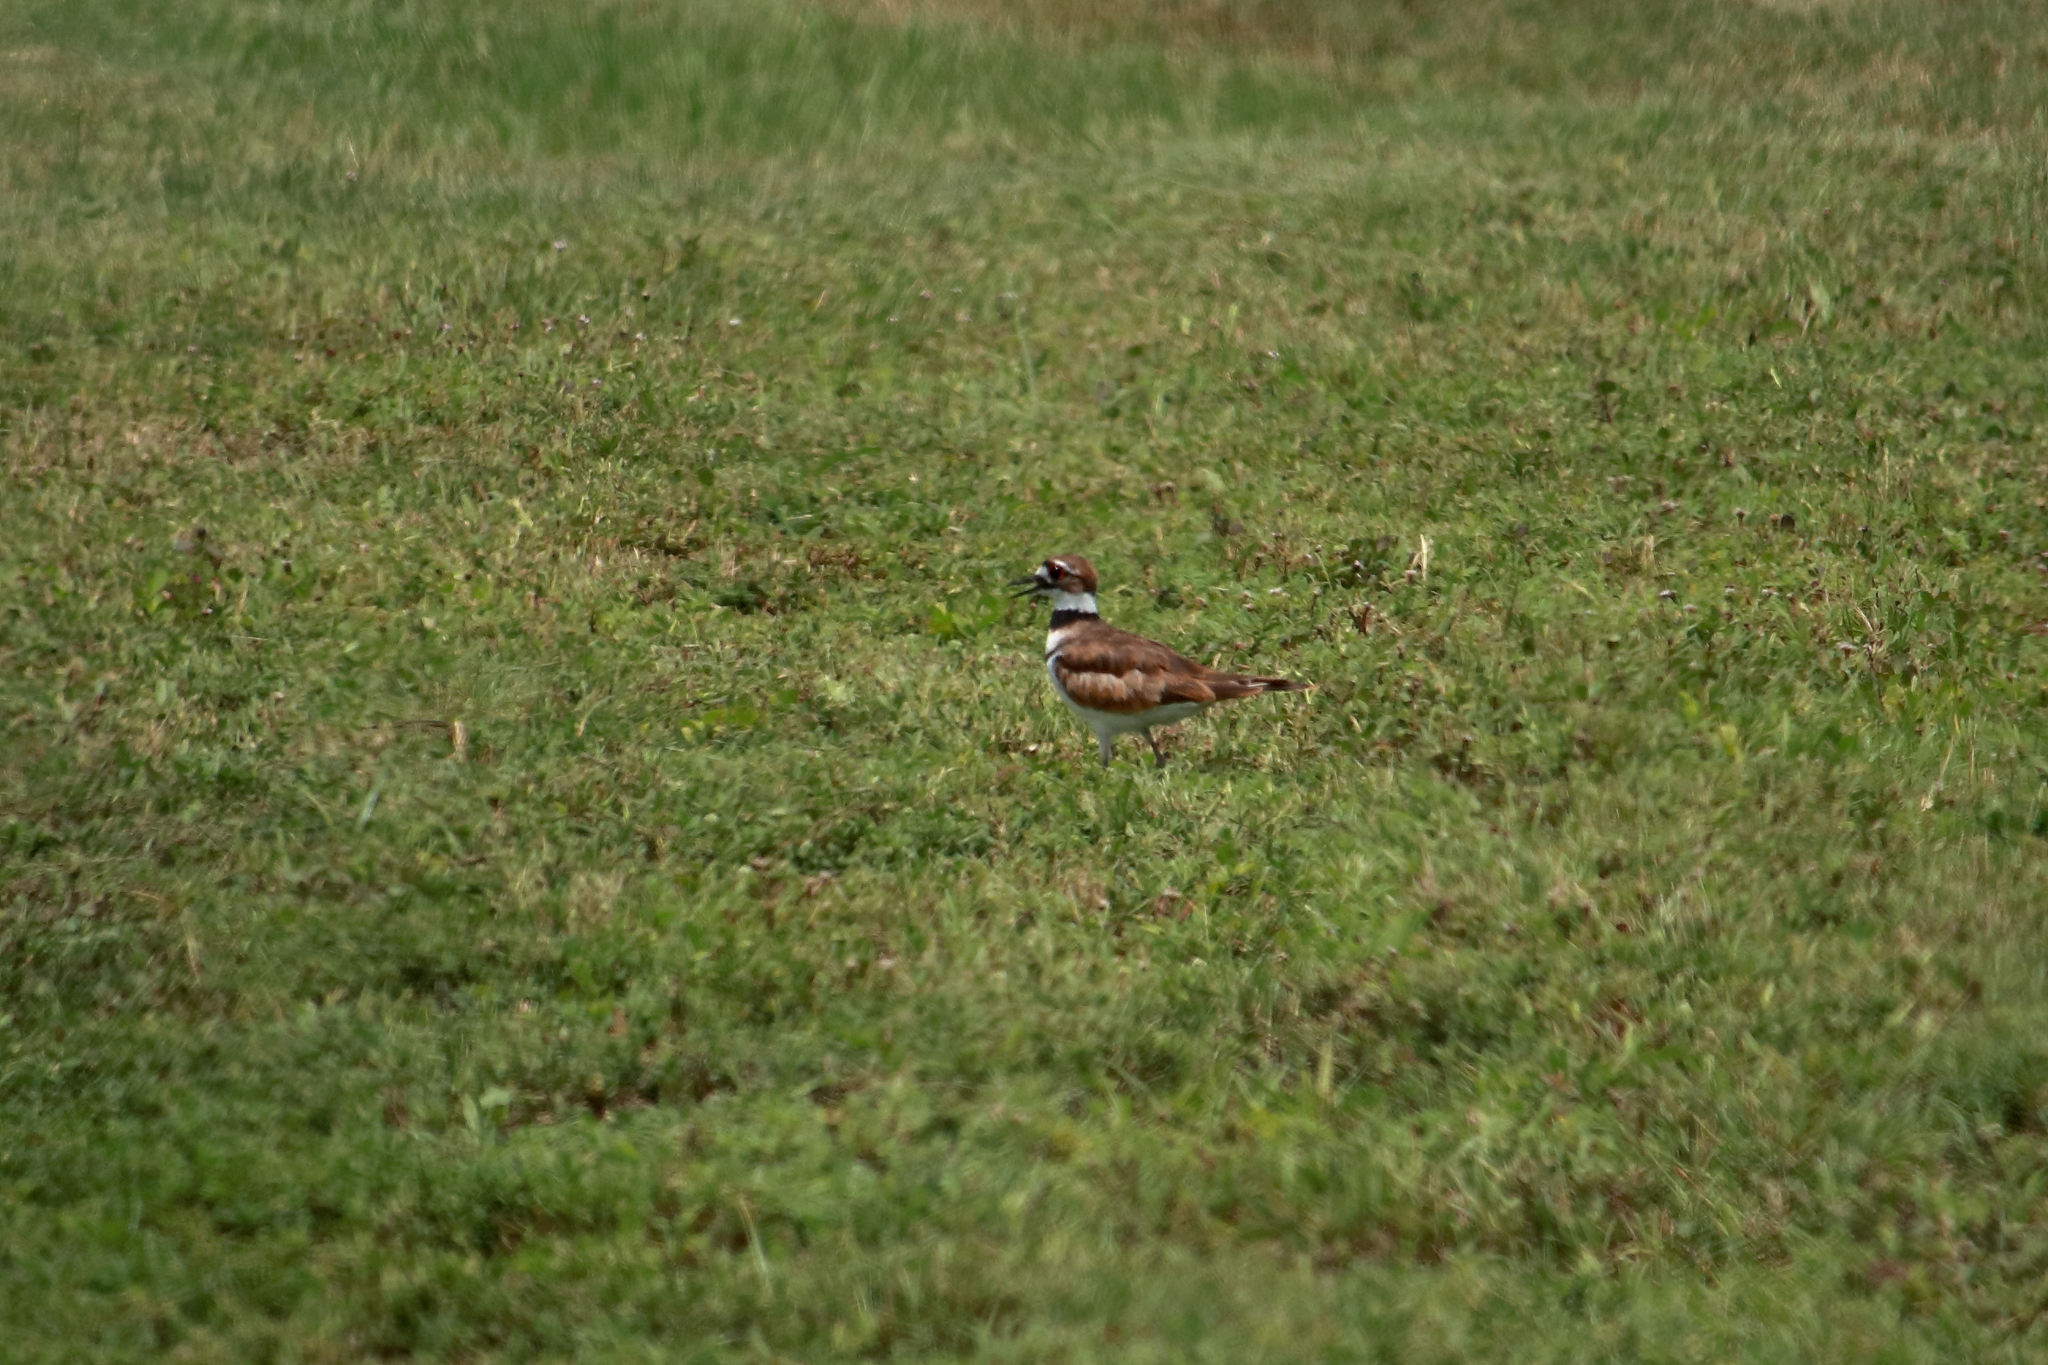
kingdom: Animalia
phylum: Chordata
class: Aves
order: Charadriiformes
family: Charadriidae
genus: Charadrius
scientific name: Charadrius vociferus
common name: Killdeer
